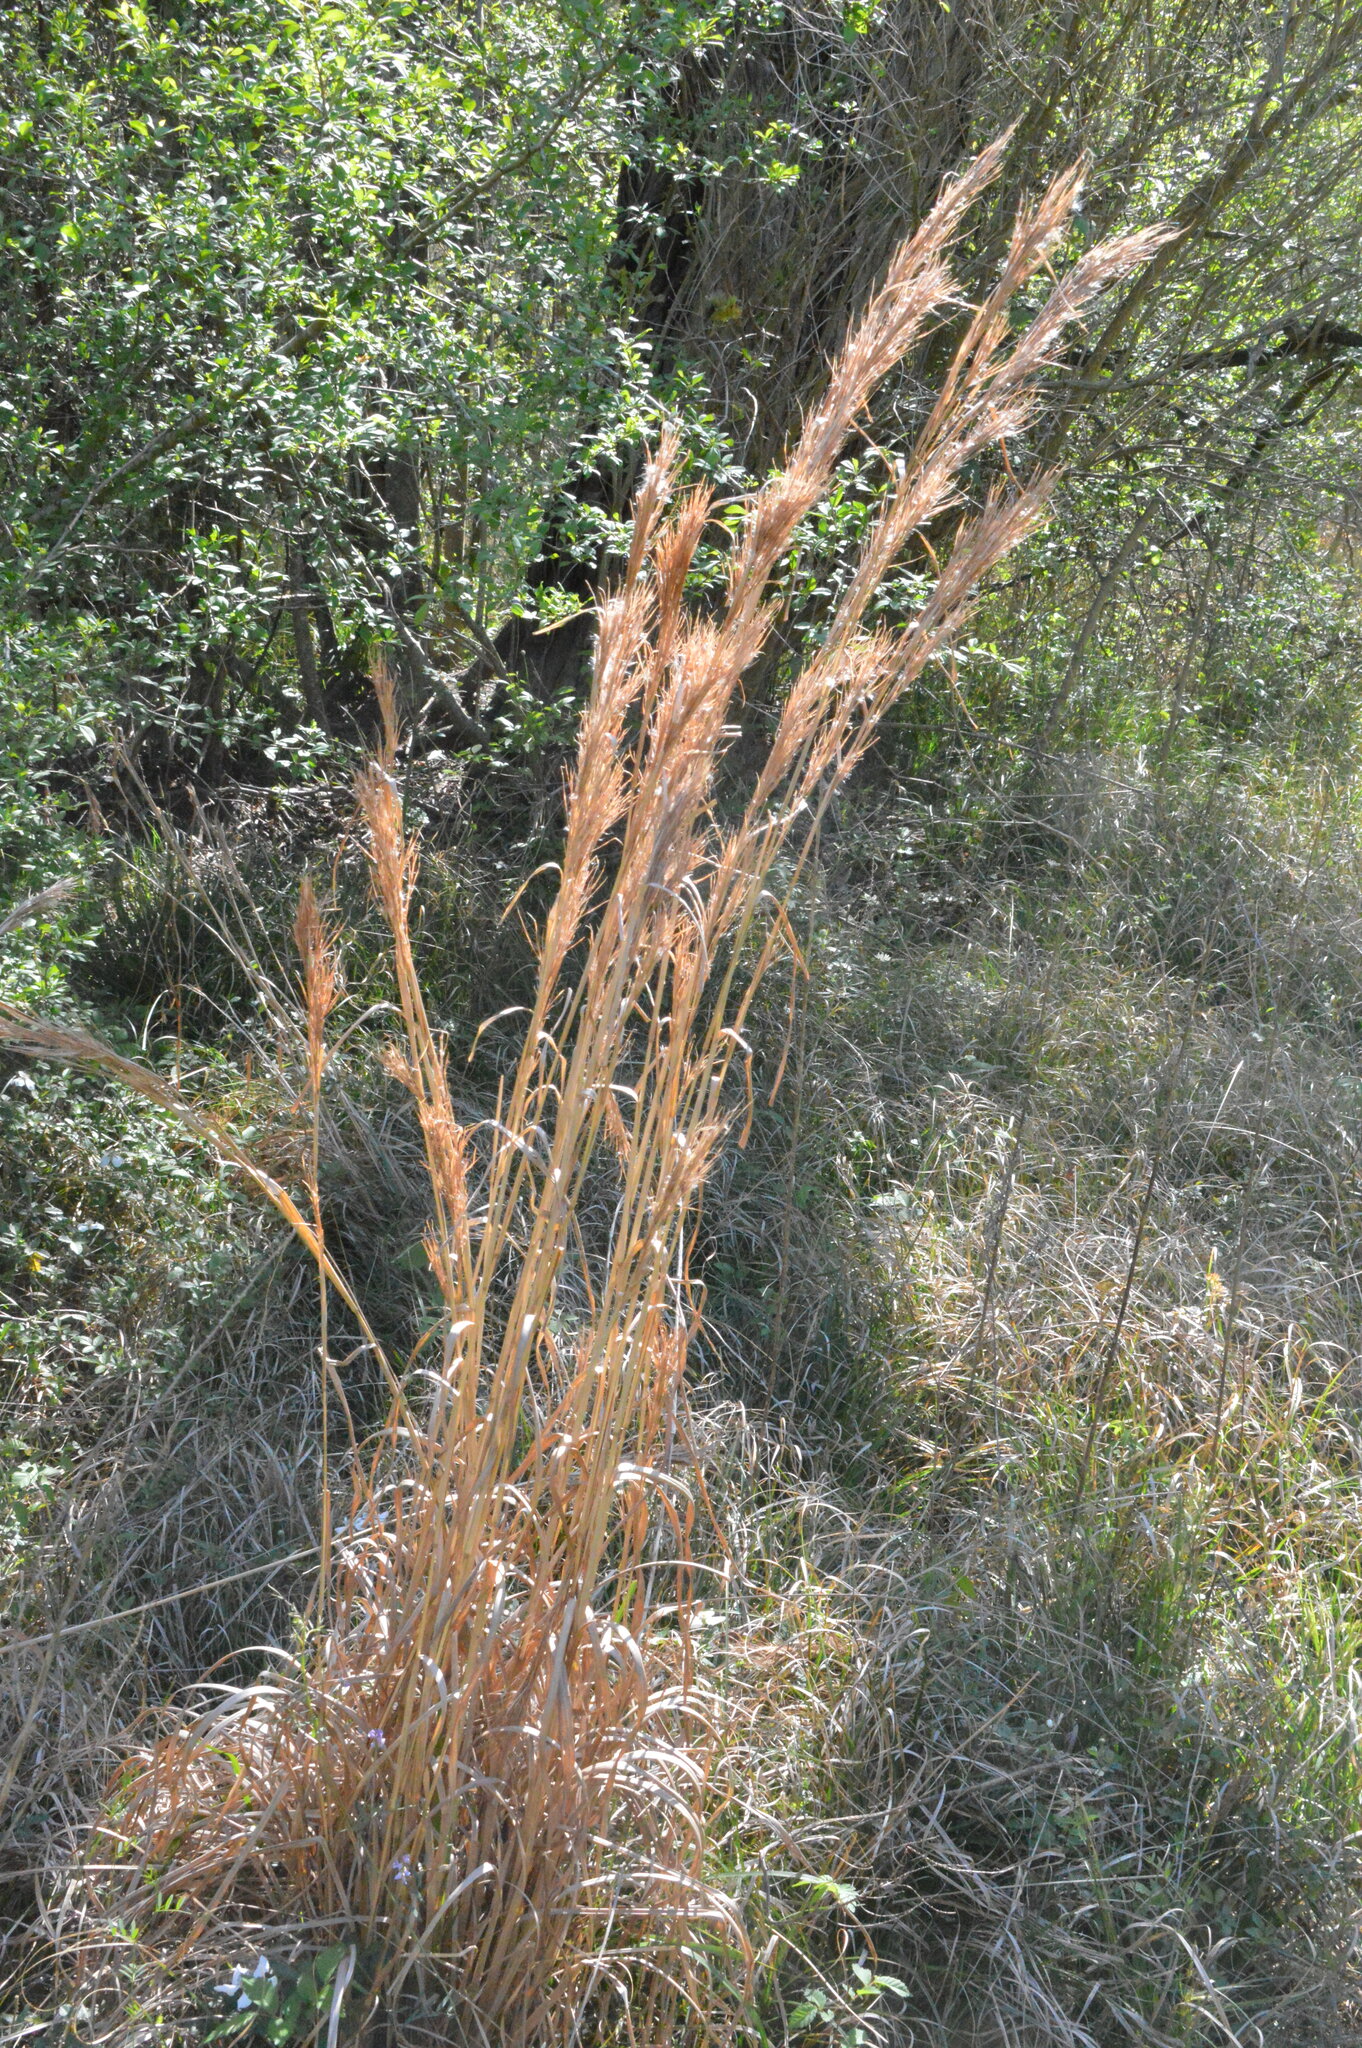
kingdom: Plantae
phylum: Tracheophyta
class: Liliopsida
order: Poales
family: Poaceae
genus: Andropogon
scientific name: Andropogon tenuispatheus
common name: Bushy bluestem
